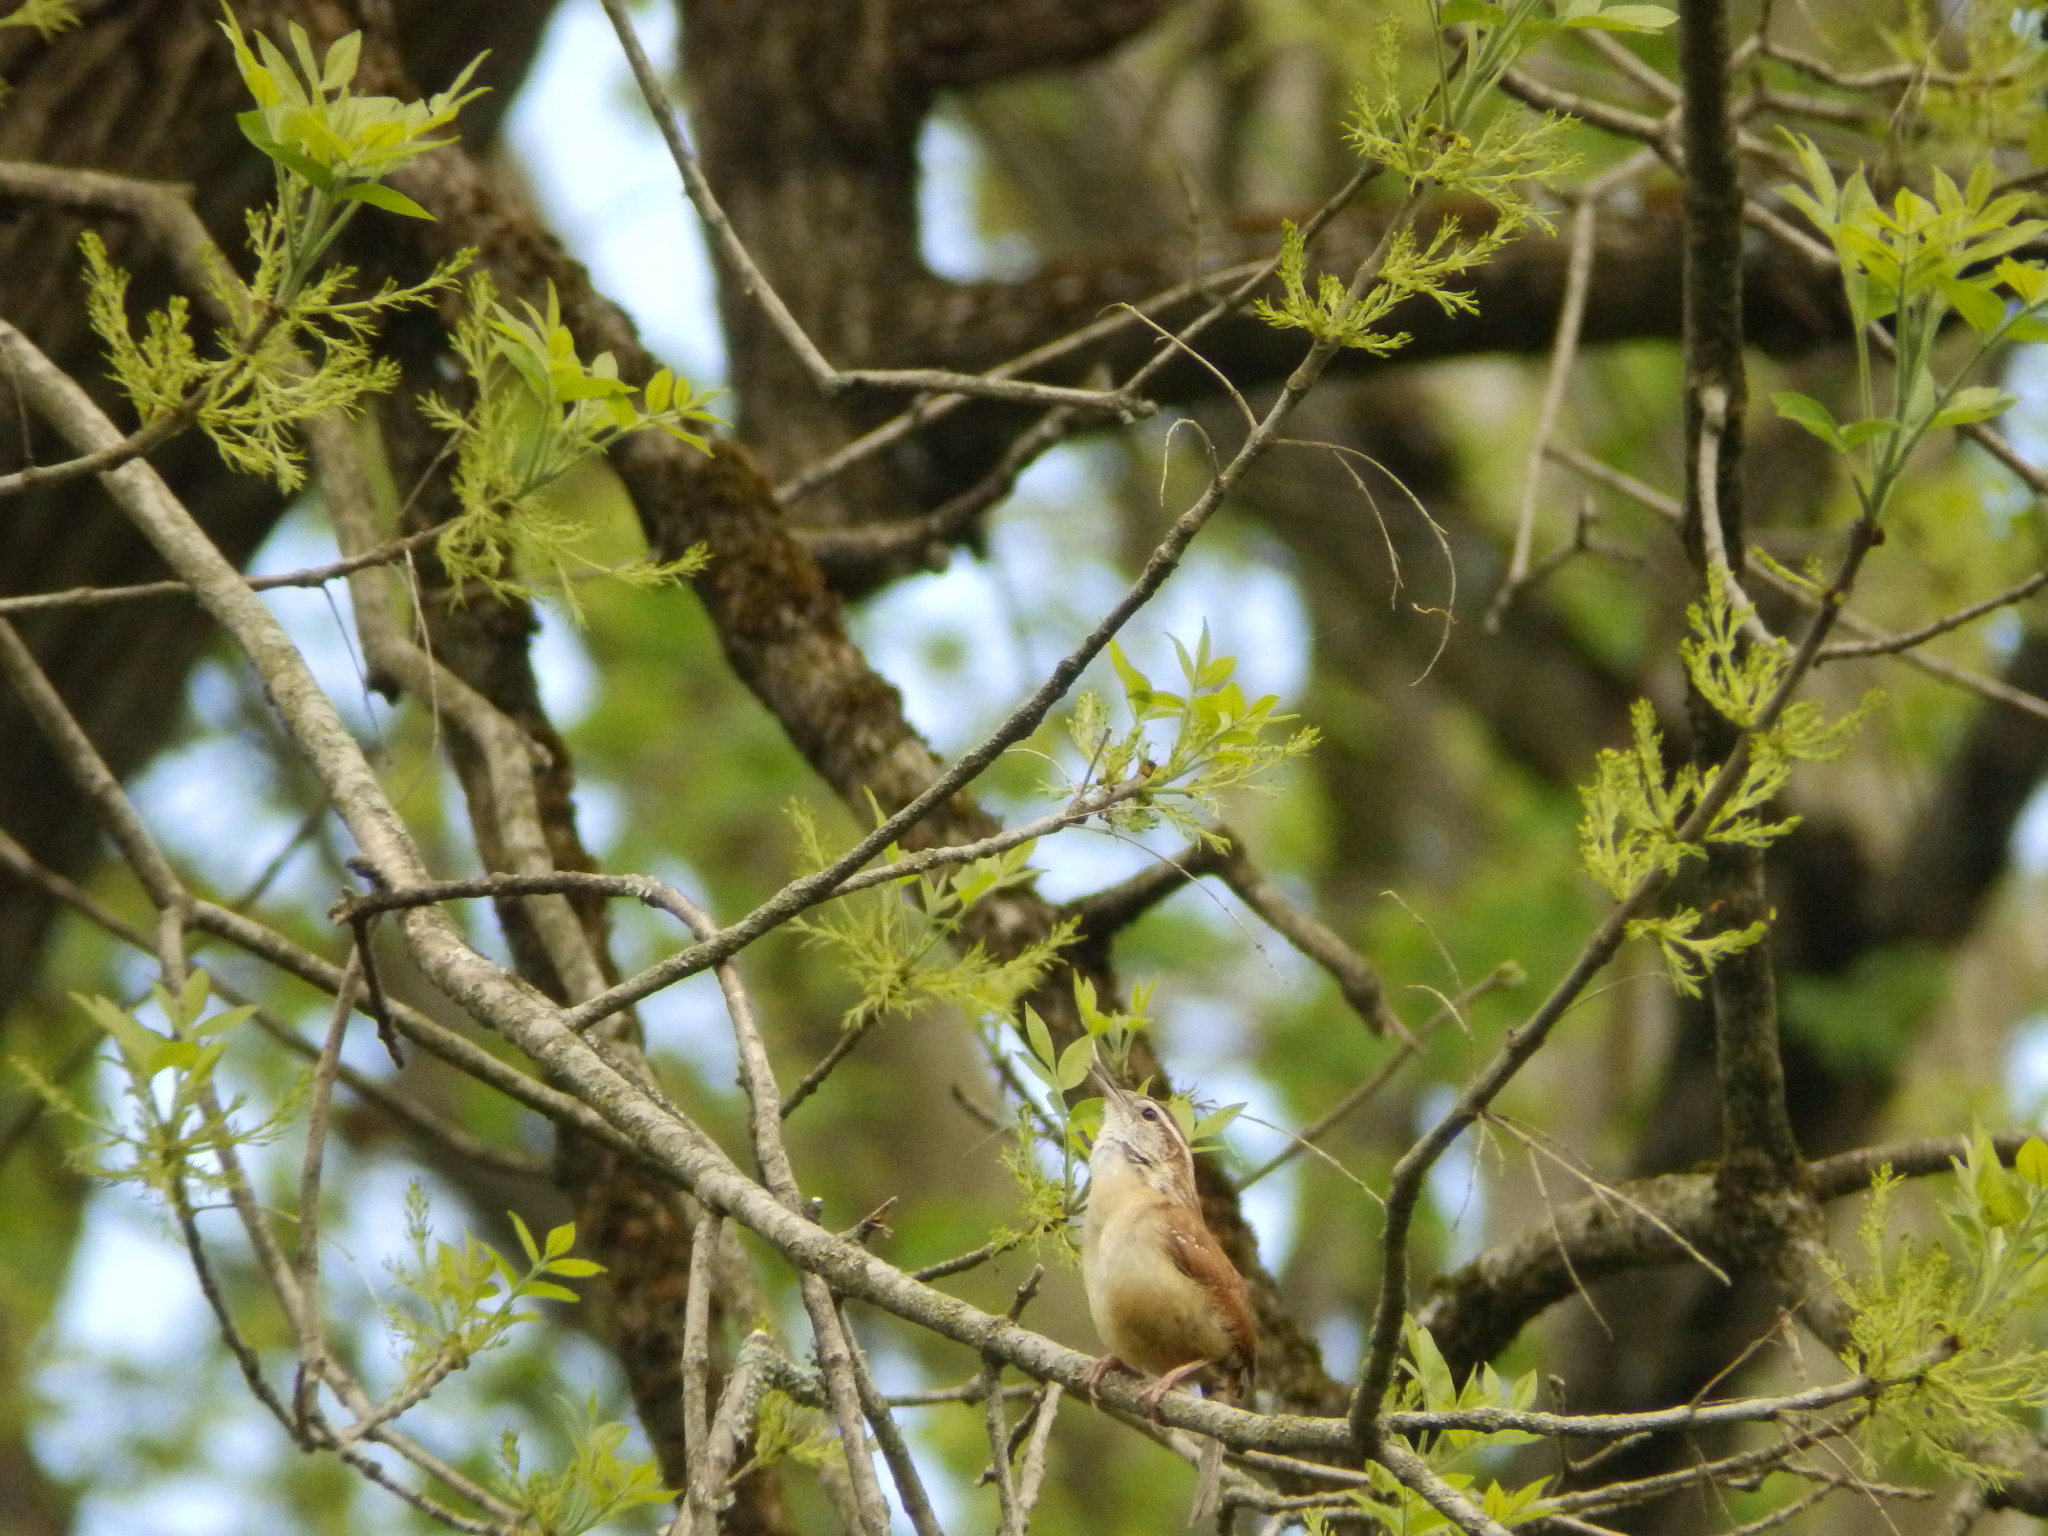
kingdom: Animalia
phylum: Chordata
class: Aves
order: Passeriformes
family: Troglodytidae
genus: Thryothorus
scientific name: Thryothorus ludovicianus
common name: Carolina wren
